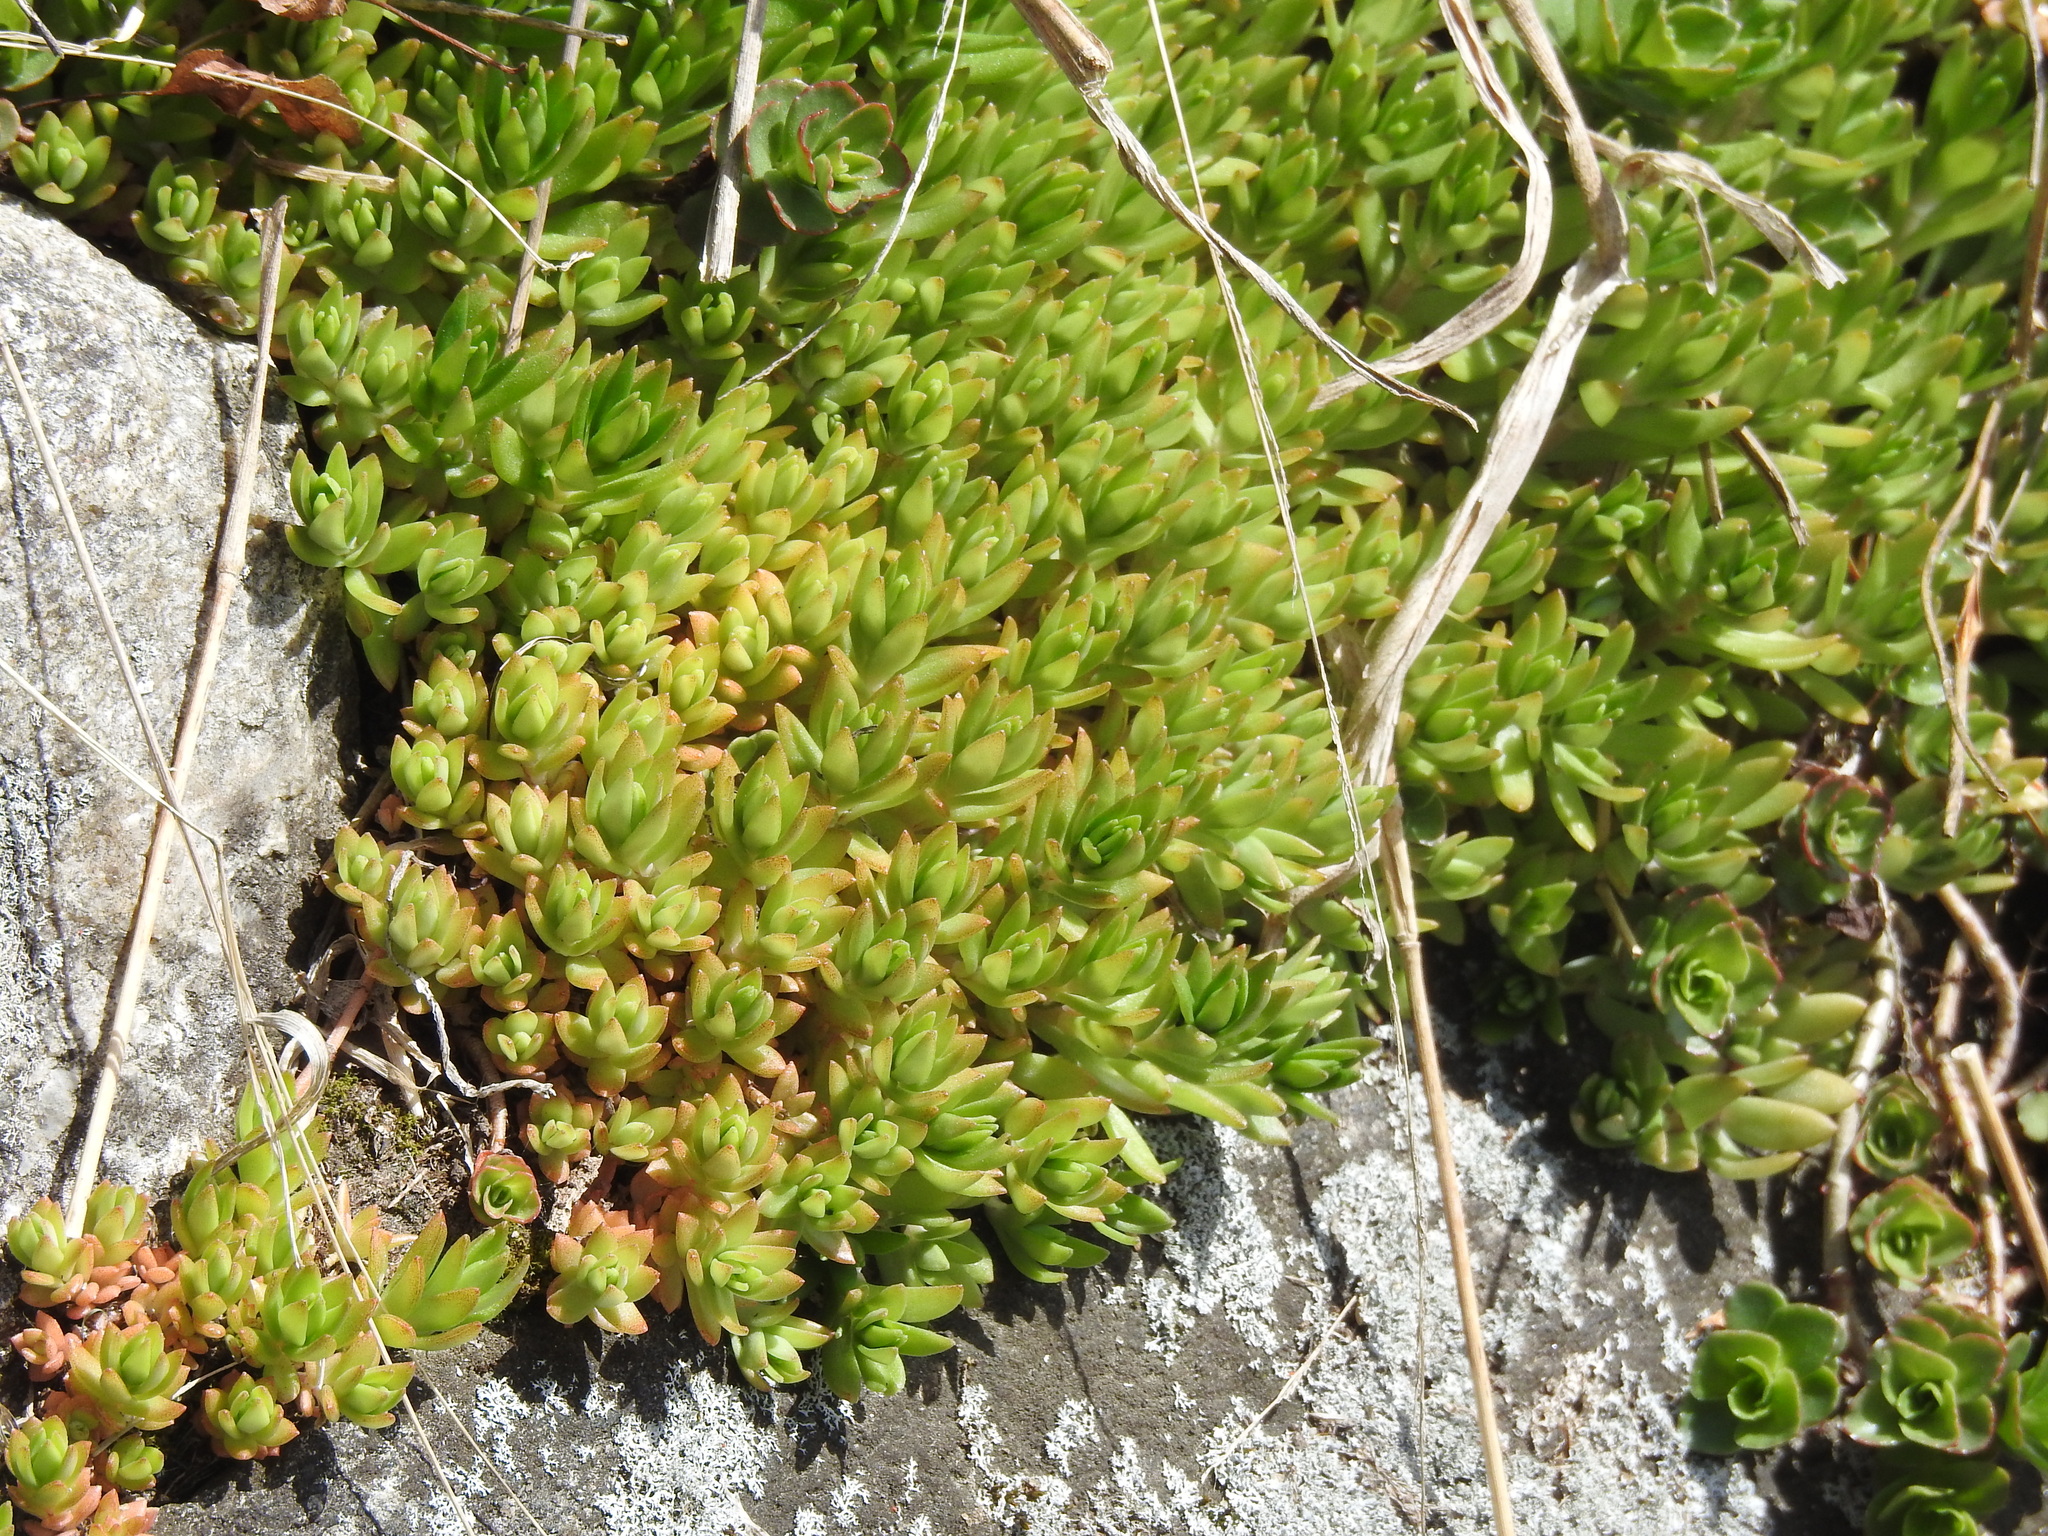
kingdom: Plantae
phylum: Tracheophyta
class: Magnoliopsida
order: Saxifragales
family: Crassulaceae
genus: Sedum
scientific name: Sedum sarmentosum
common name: Stringy stonecrop
